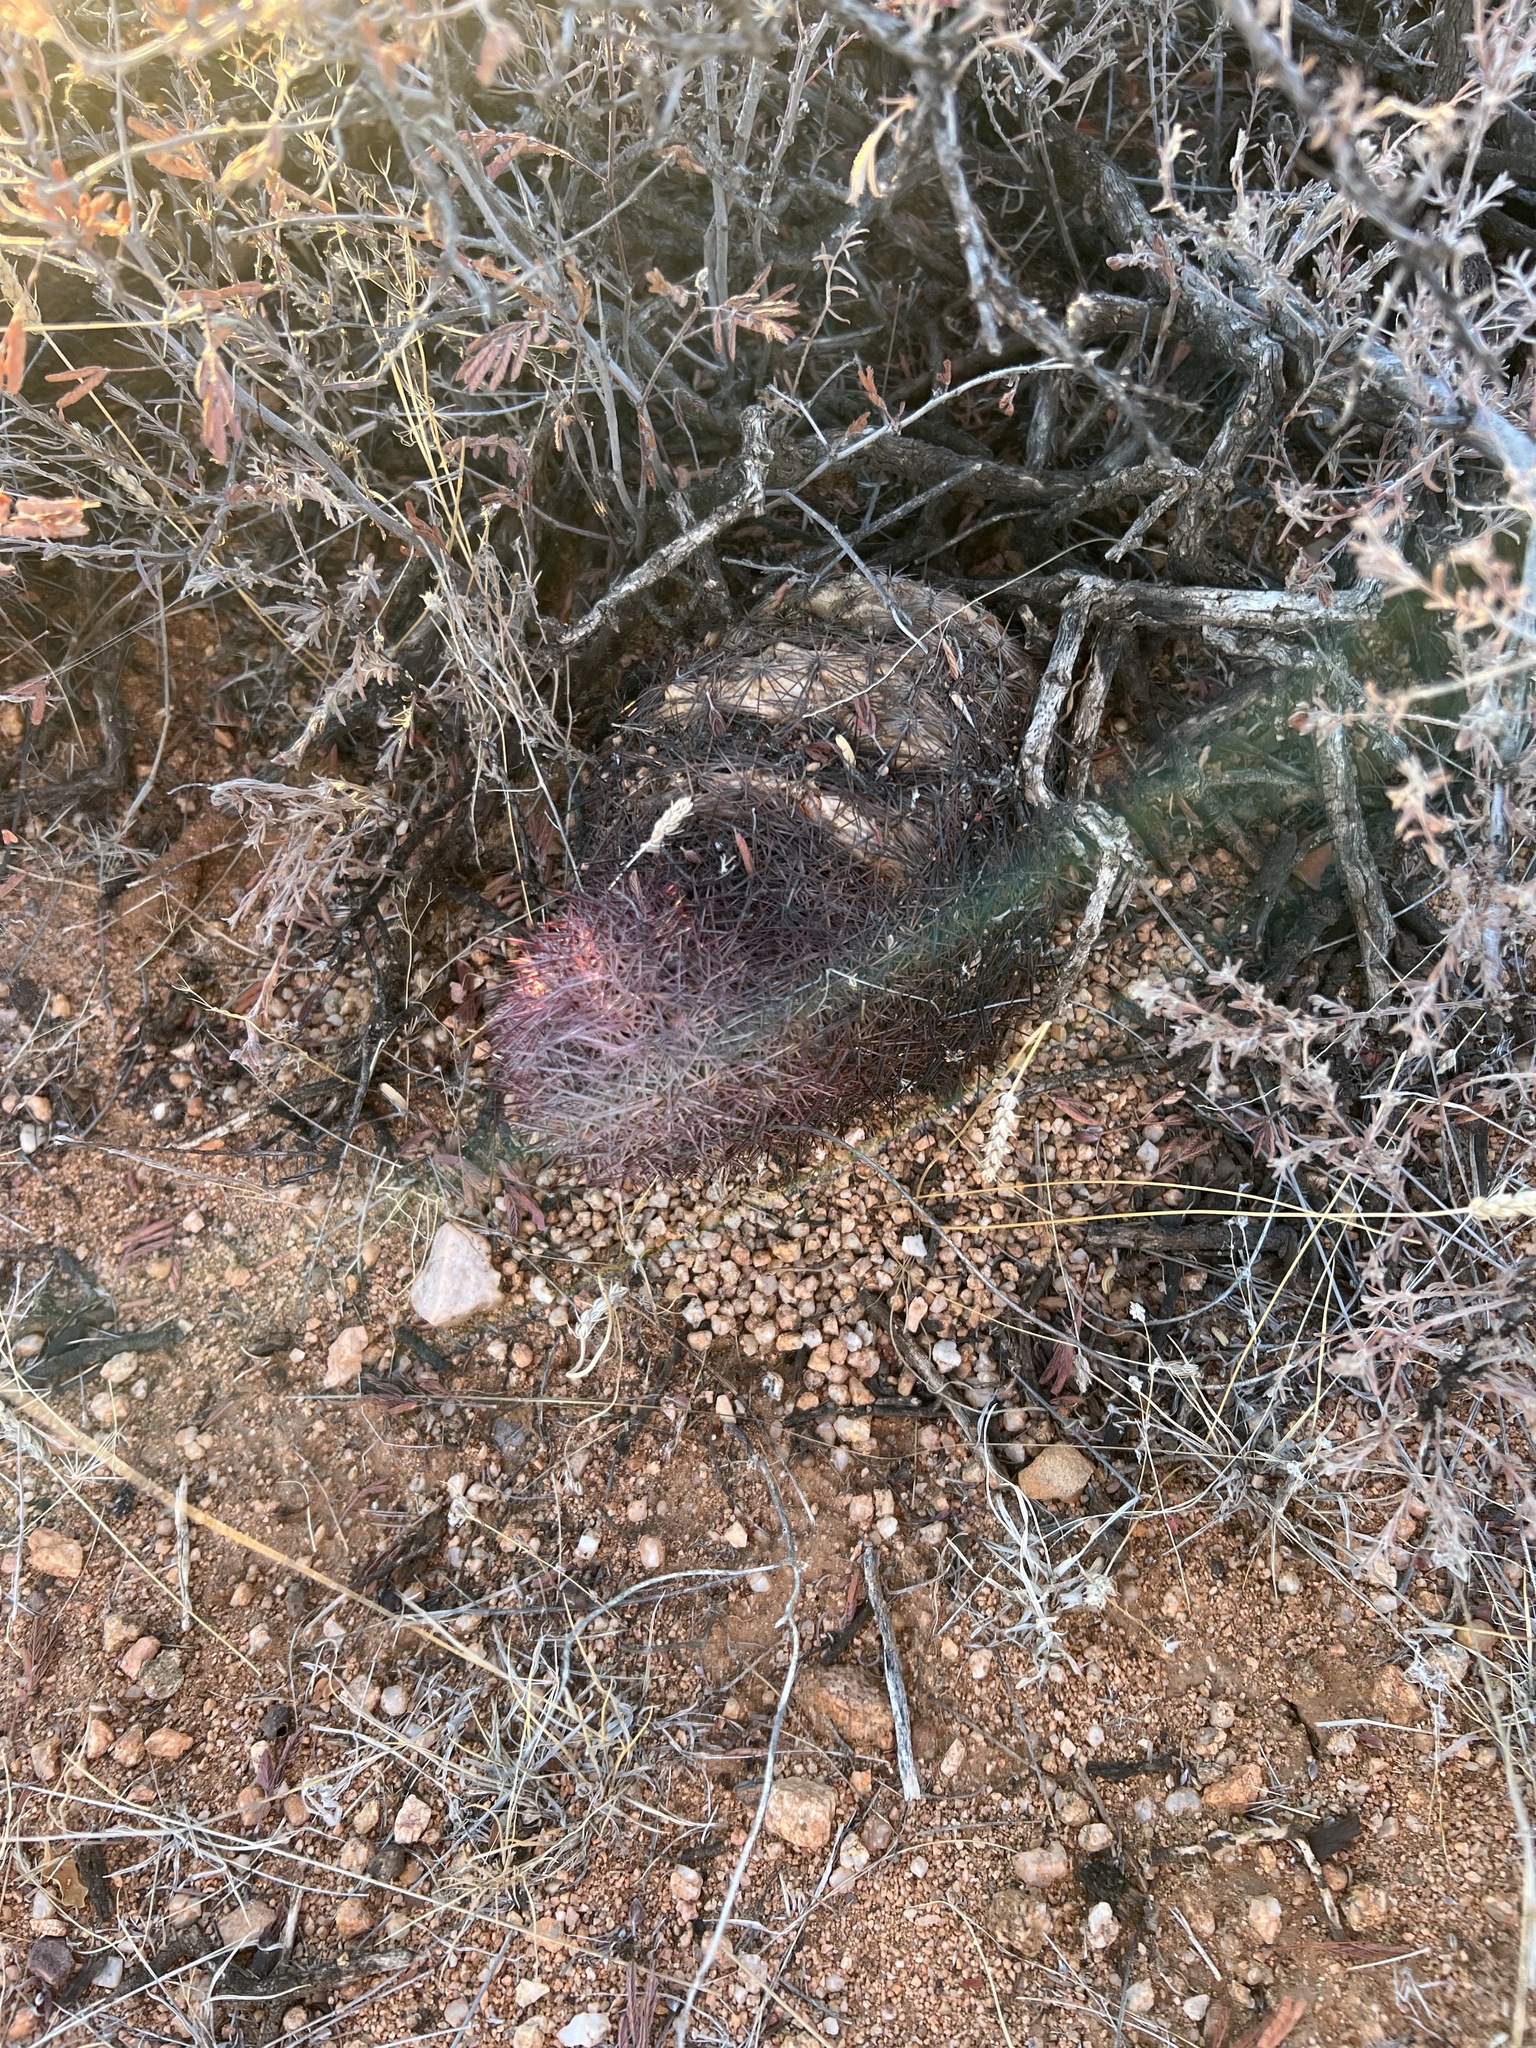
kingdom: Plantae
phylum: Tracheophyta
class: Magnoliopsida
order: Caryophyllales
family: Cactaceae
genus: Sclerocactus
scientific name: Sclerocactus johnsonii
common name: Eight-spine fishhook cactus
